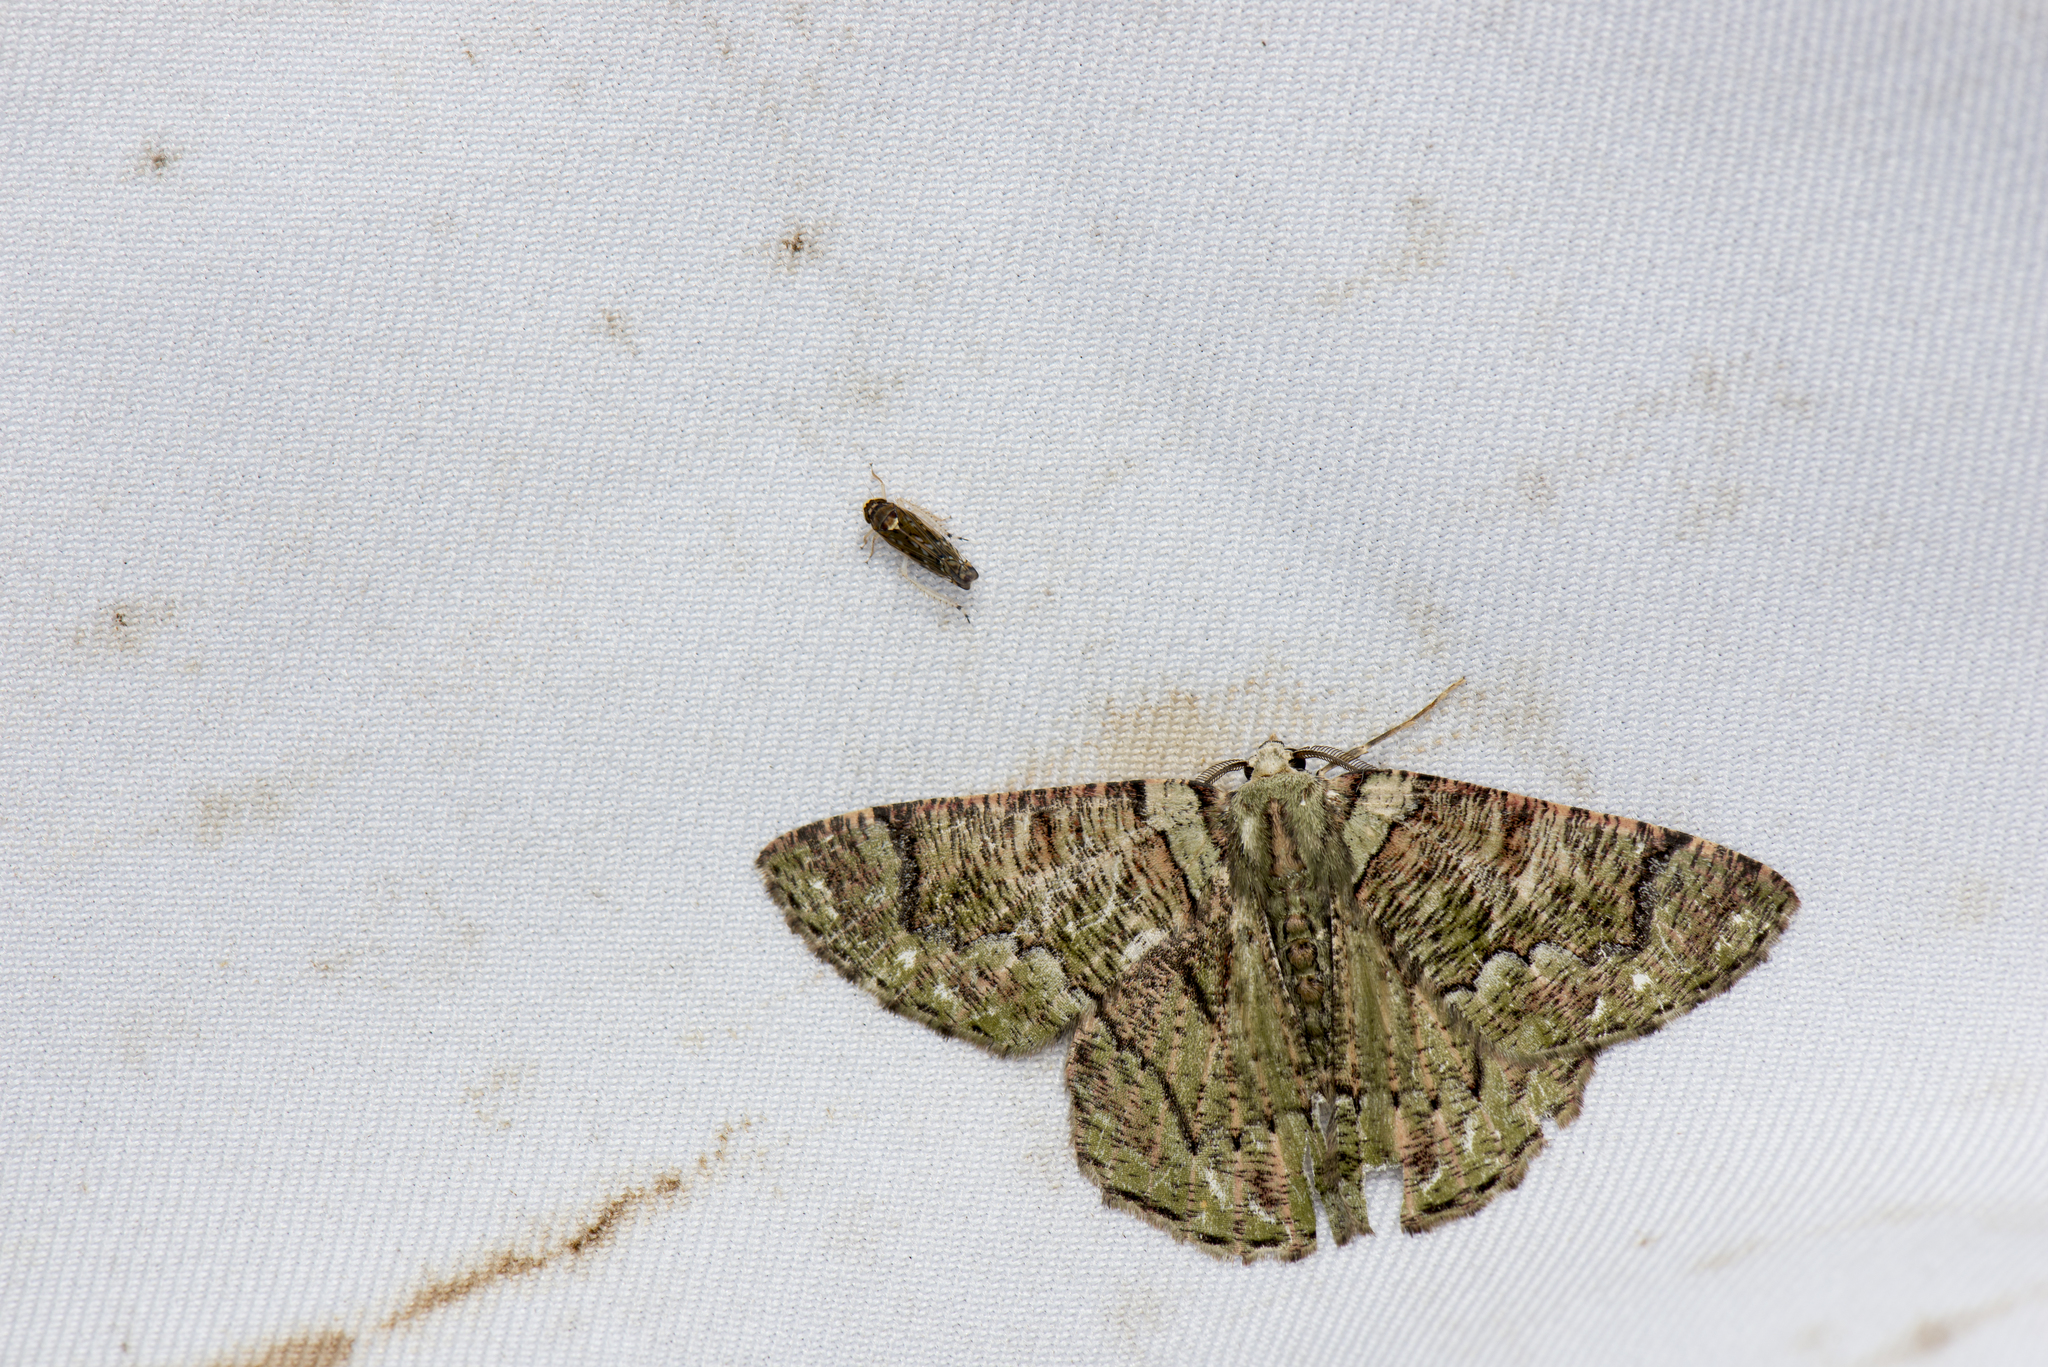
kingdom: Animalia
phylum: Arthropoda
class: Insecta
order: Lepidoptera
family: Geometridae
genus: Lophophelma
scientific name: Lophophelma taiwana
